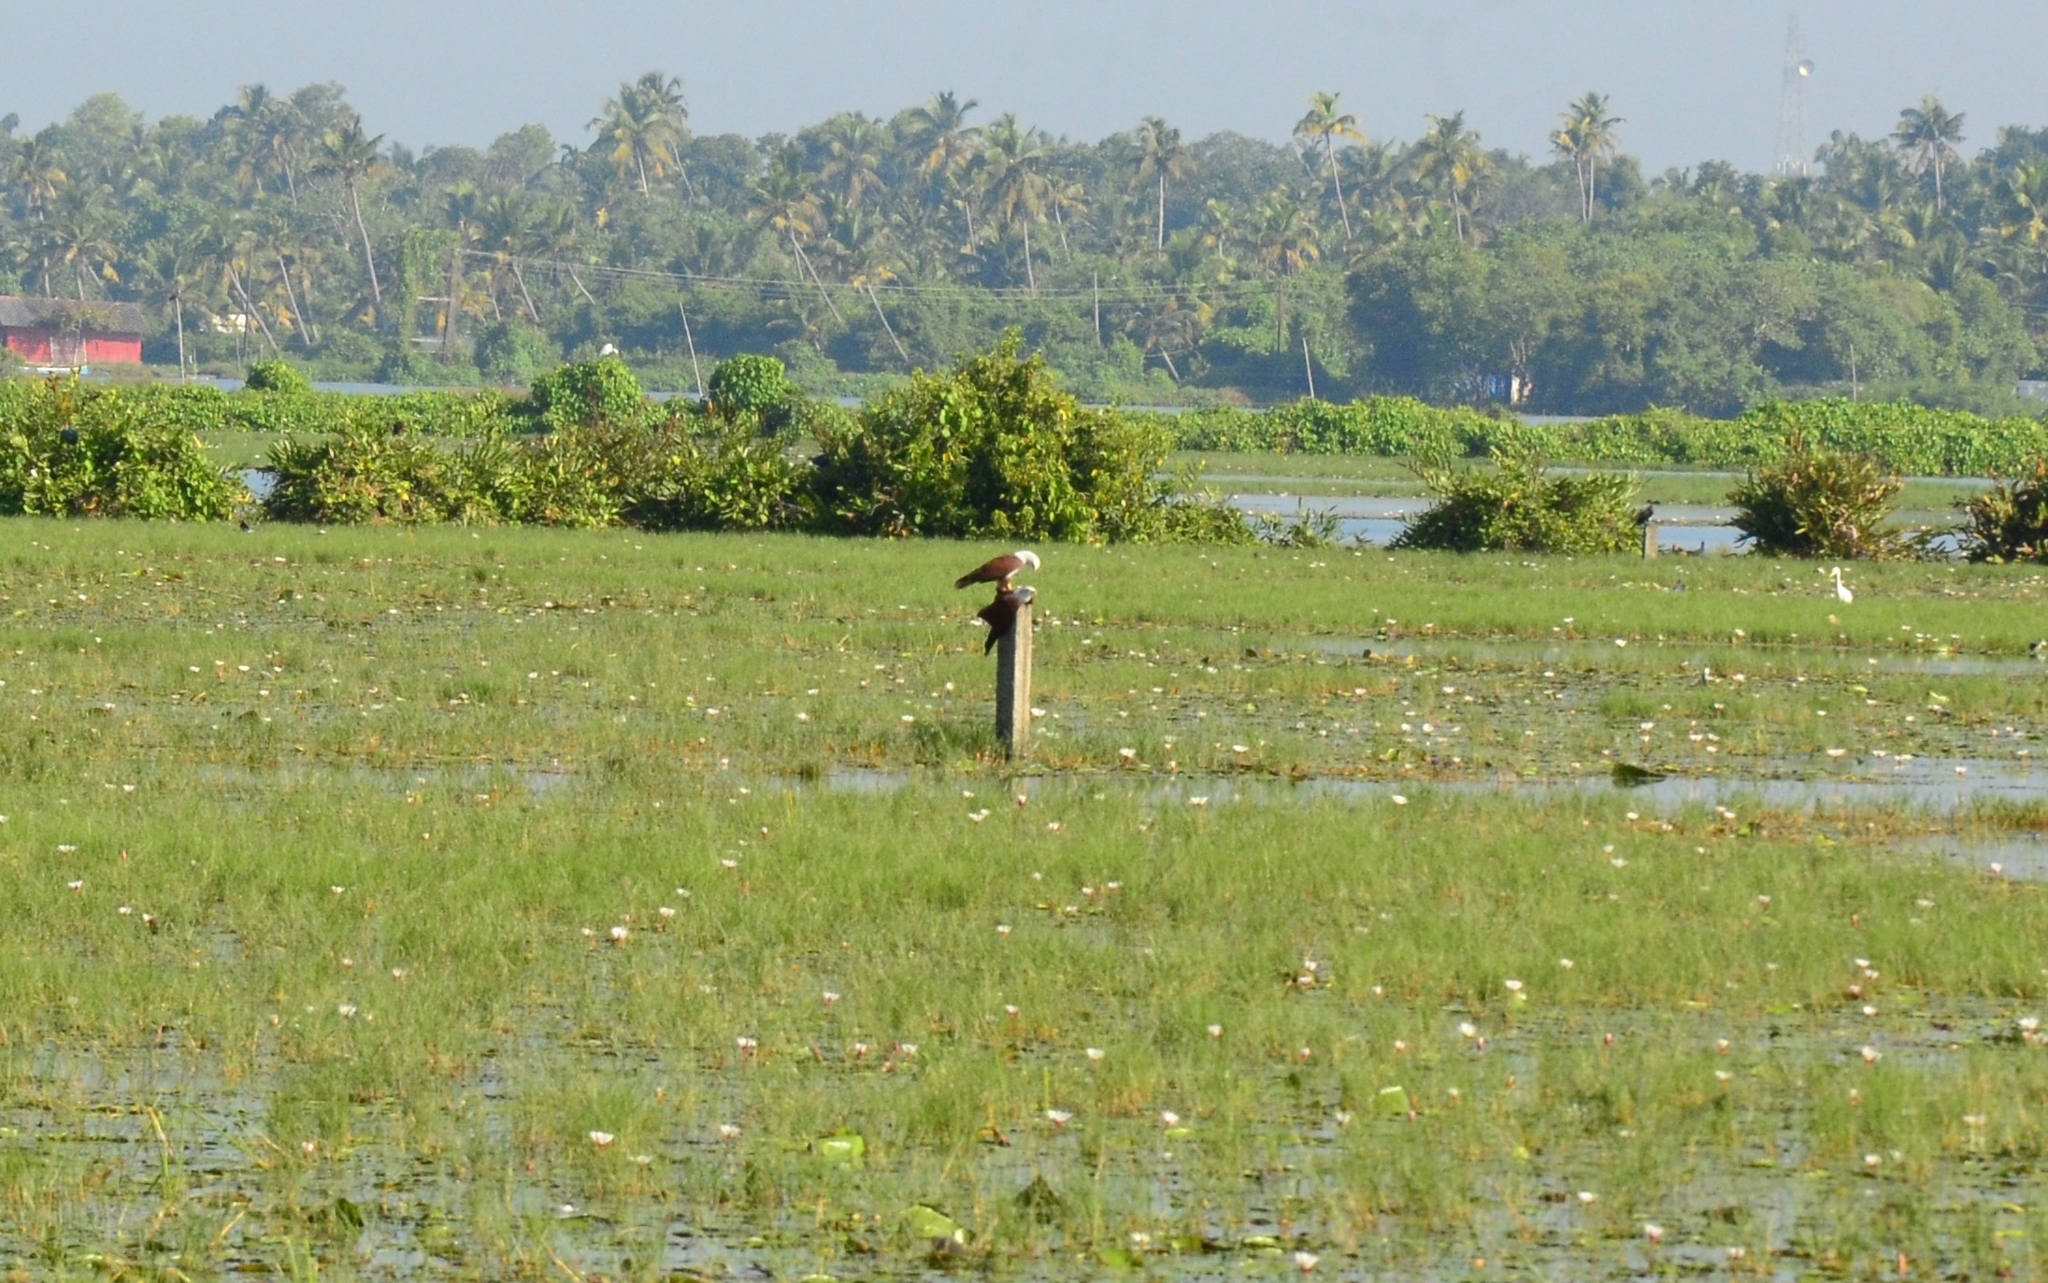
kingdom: Animalia
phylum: Chordata
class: Aves
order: Accipitriformes
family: Accipitridae
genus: Haliastur
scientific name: Haliastur indus
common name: Brahminy kite
